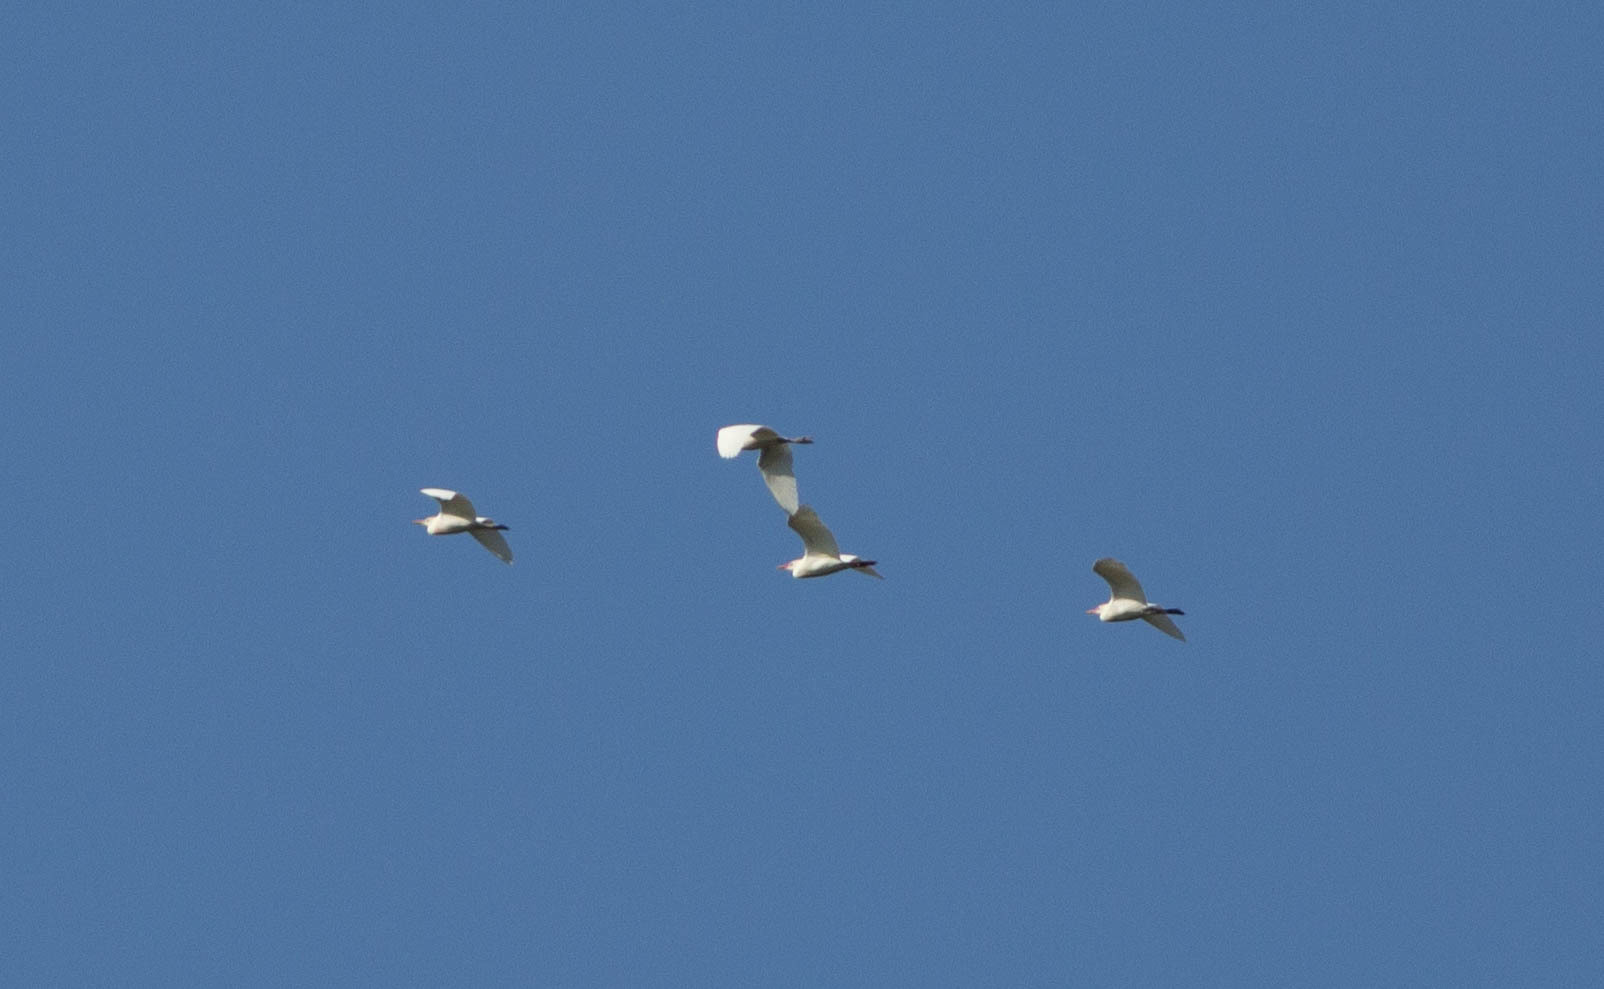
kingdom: Animalia
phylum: Chordata
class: Aves
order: Pelecaniformes
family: Ardeidae
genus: Bubulcus
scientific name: Bubulcus ibis
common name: Cattle egret
